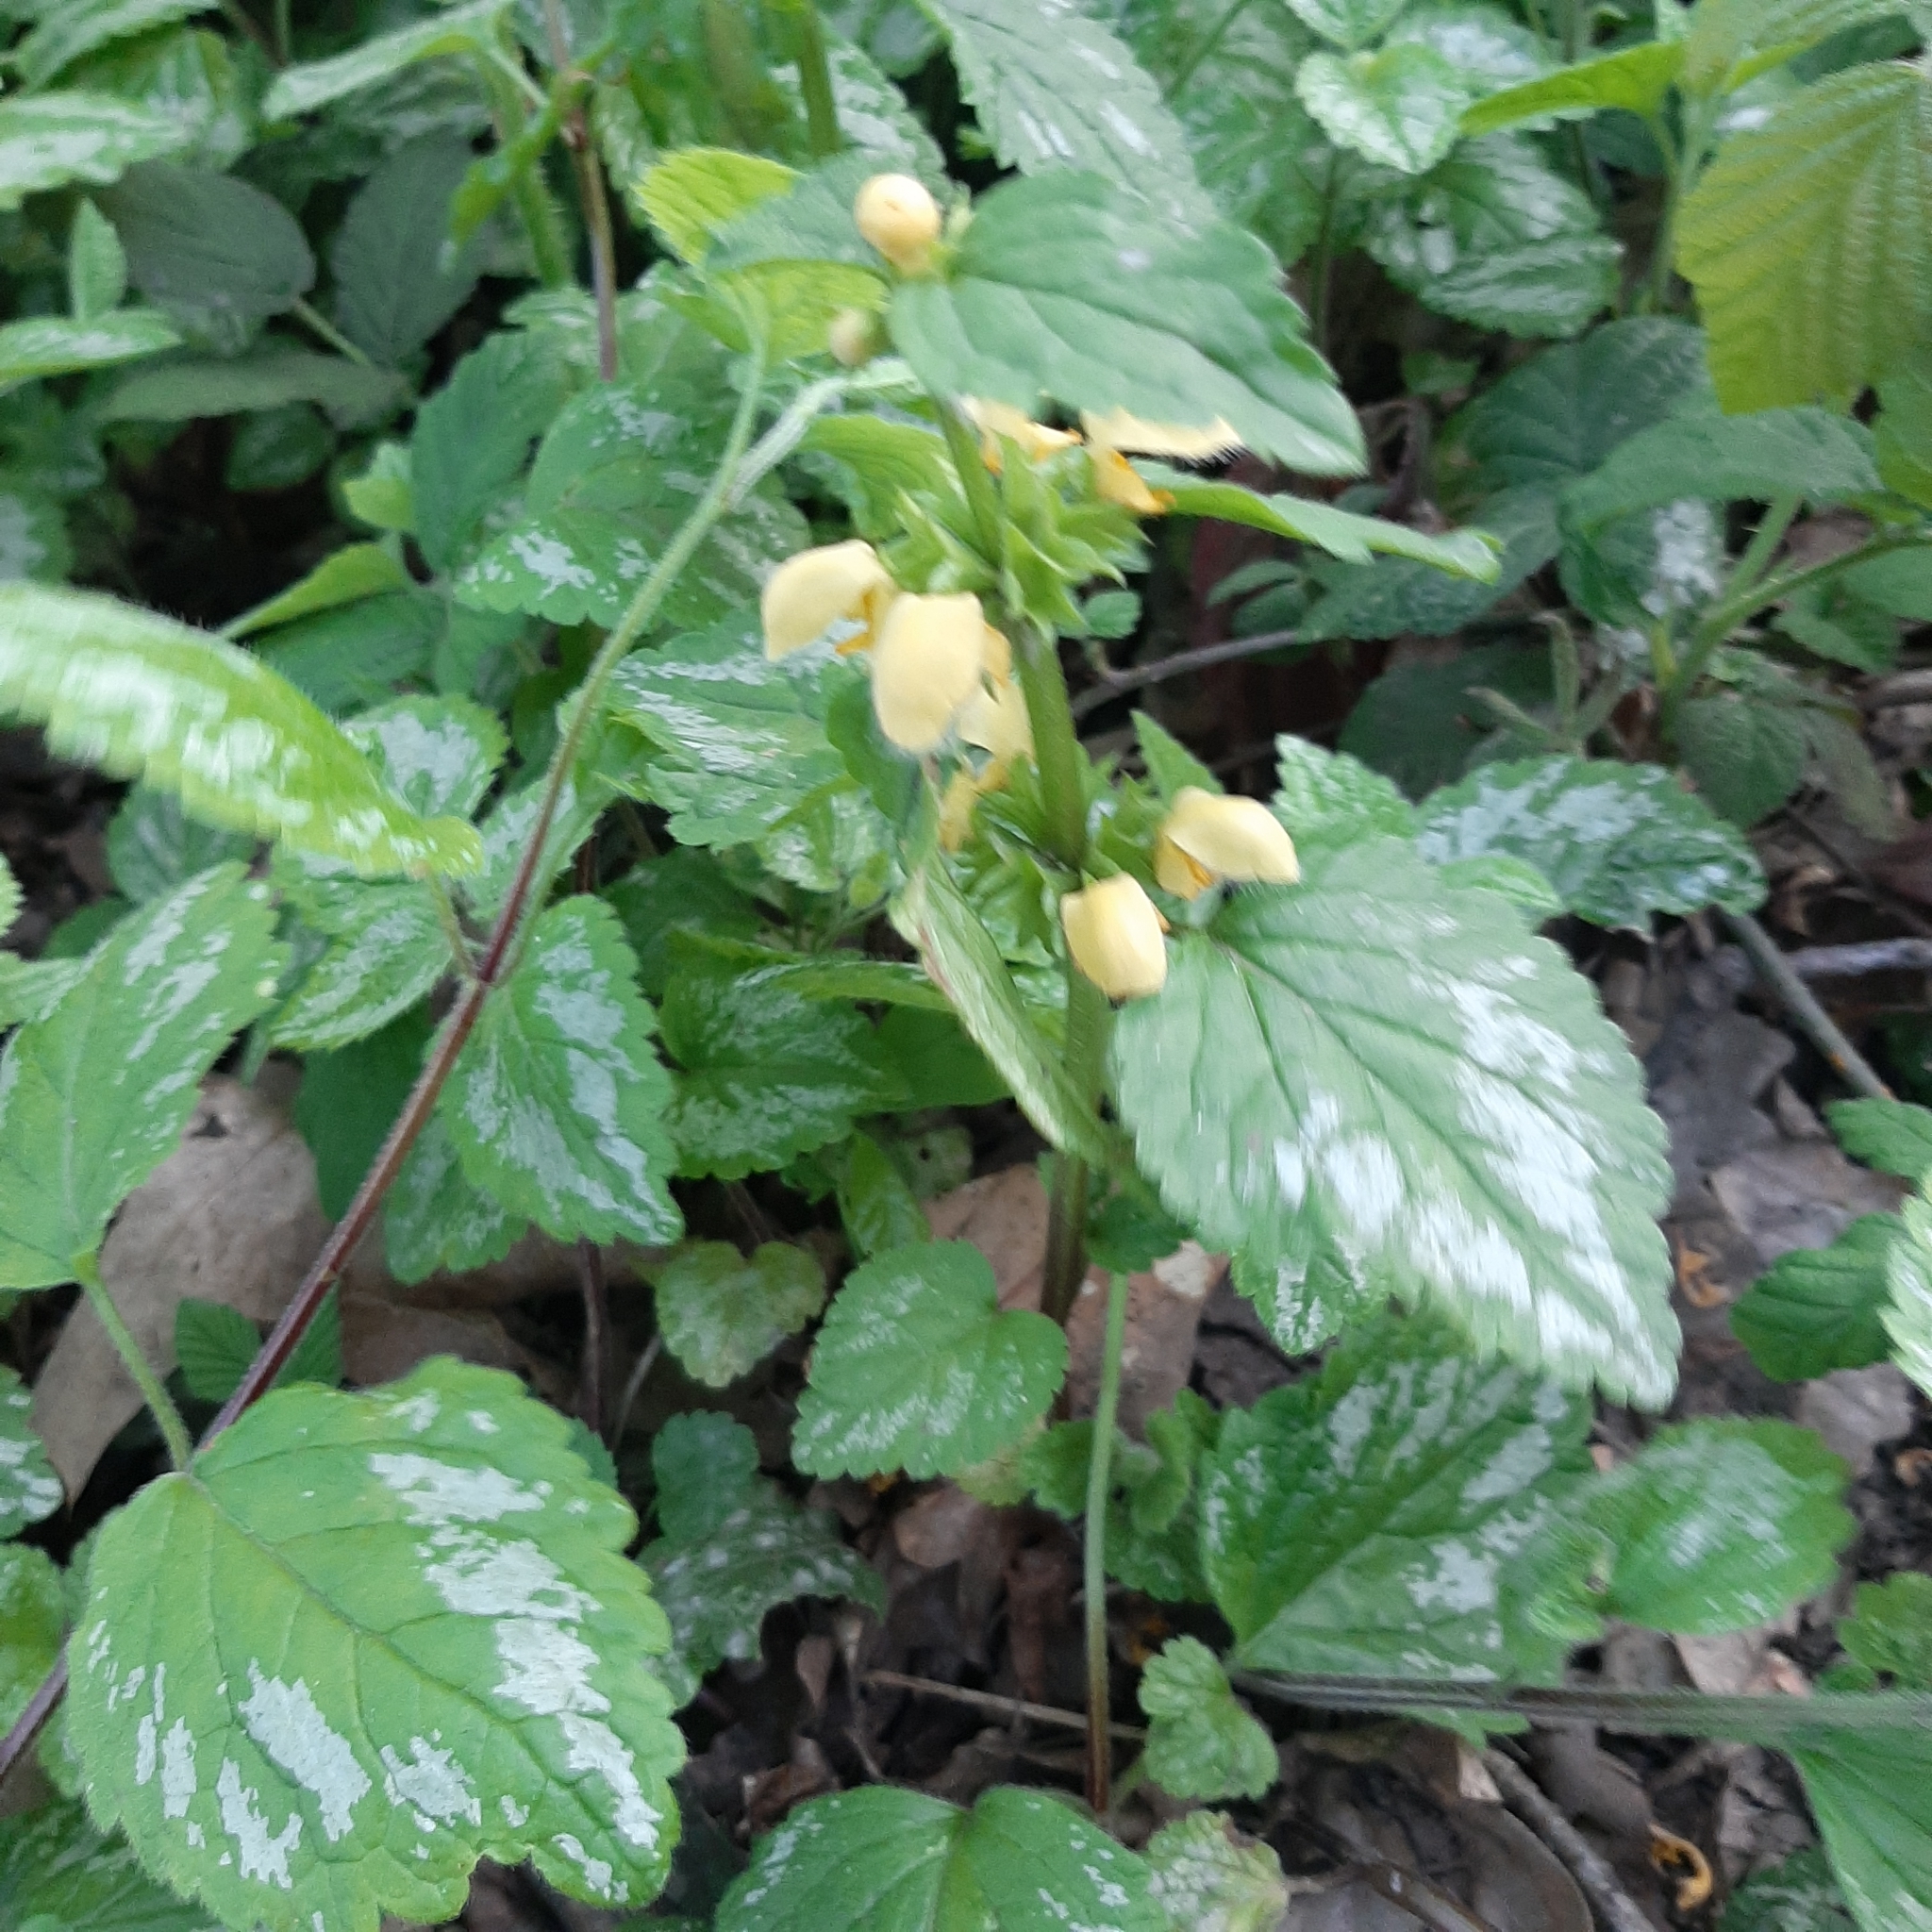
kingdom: Plantae
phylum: Tracheophyta
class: Magnoliopsida
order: Lamiales
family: Lamiaceae
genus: Lamium
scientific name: Lamium galeobdolon
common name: Yellow archangel
